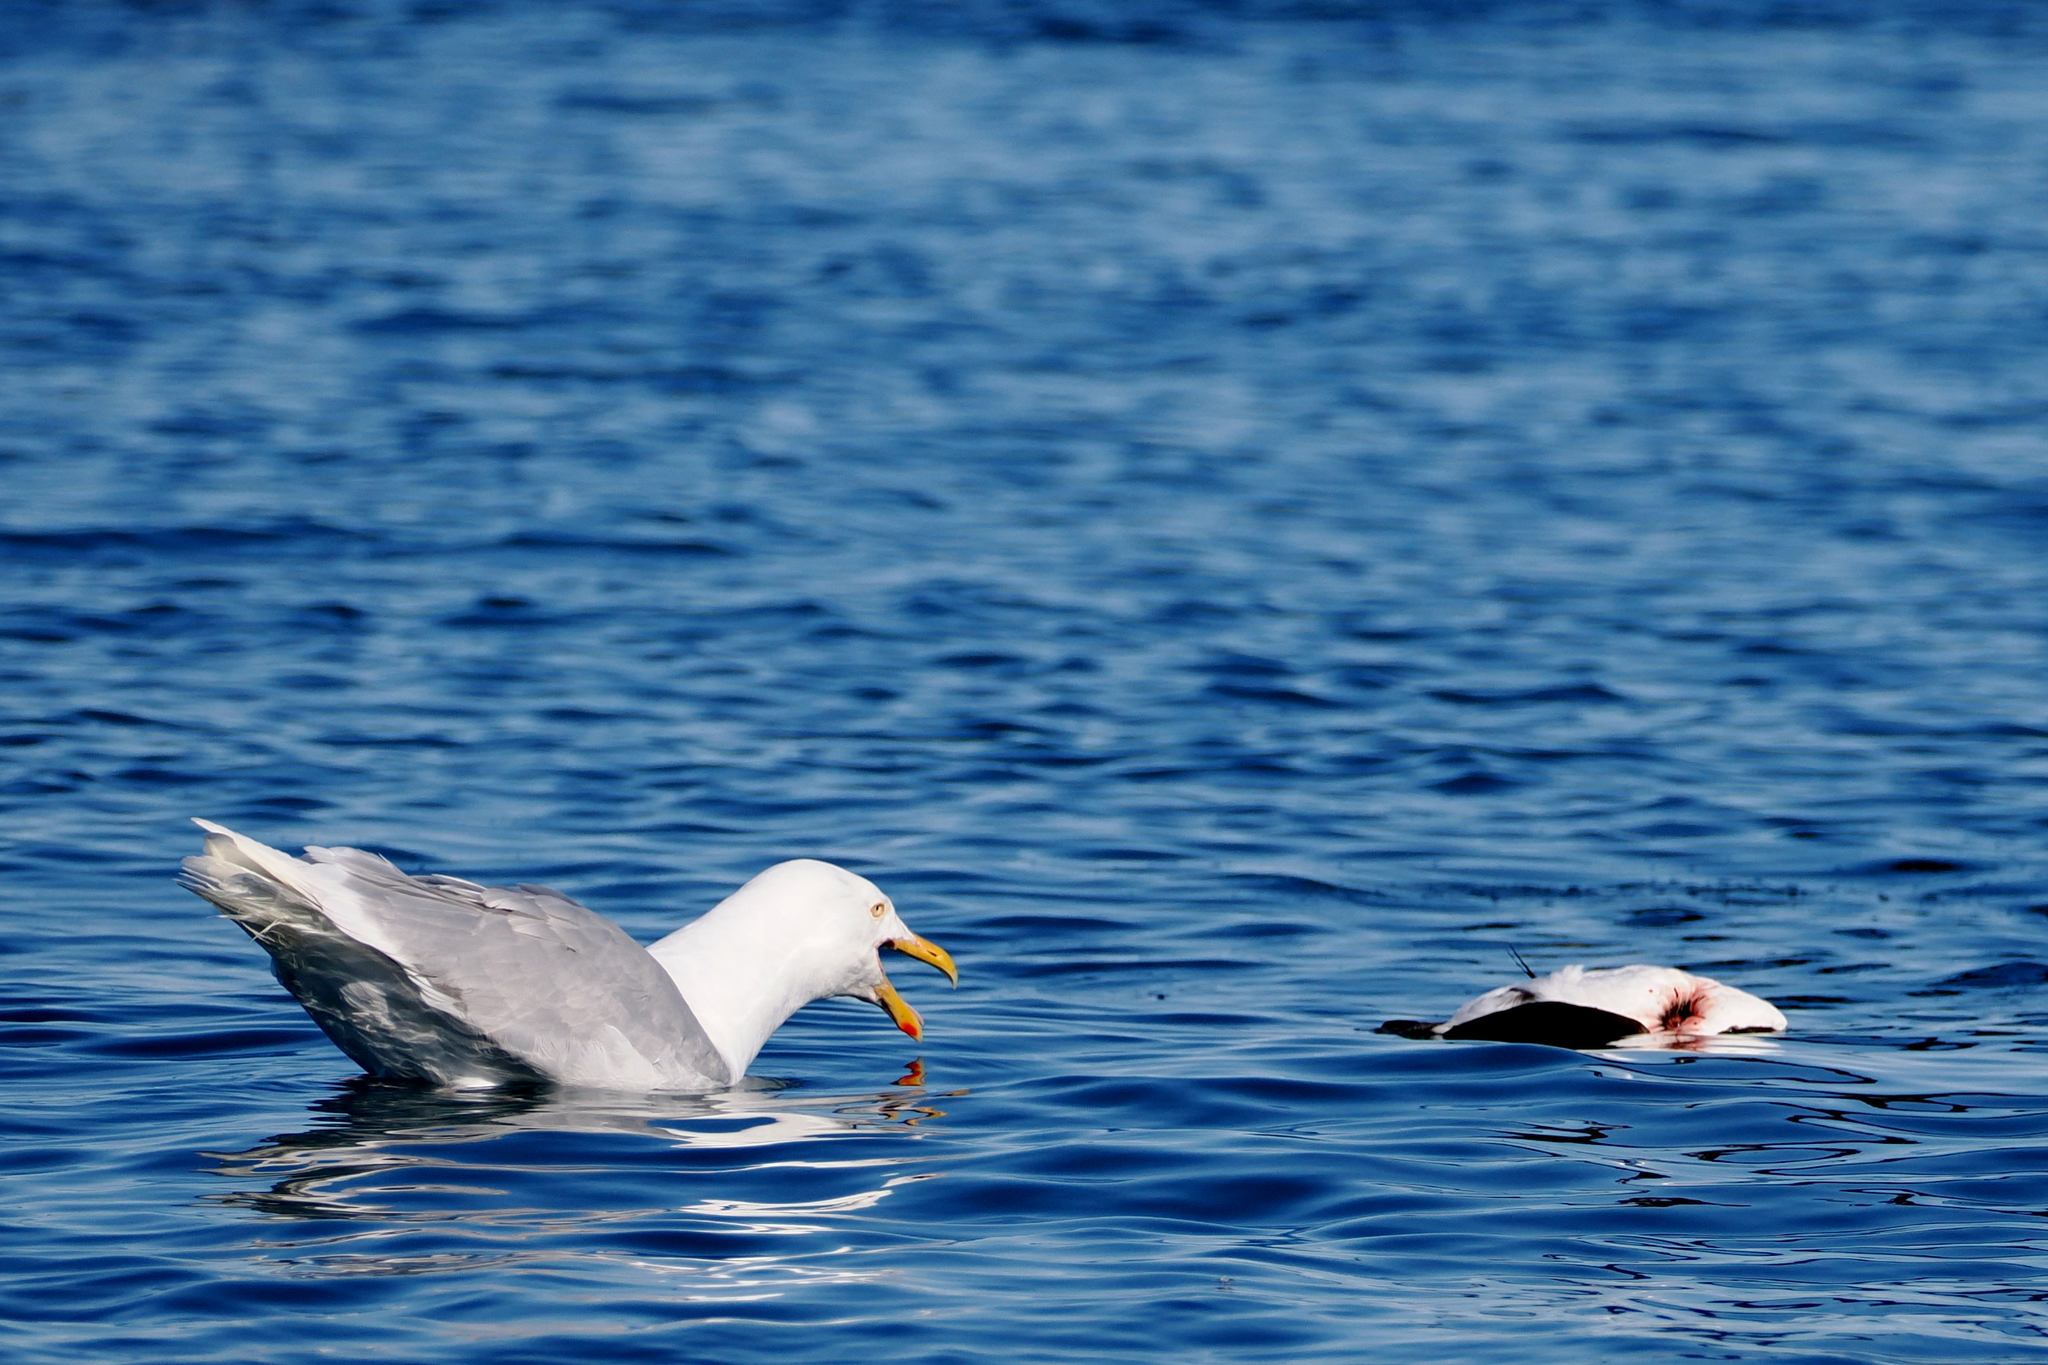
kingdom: Animalia
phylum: Chordata
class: Aves
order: Charadriiformes
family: Laridae
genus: Larus
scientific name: Larus hyperboreus
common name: Glaucous gull
